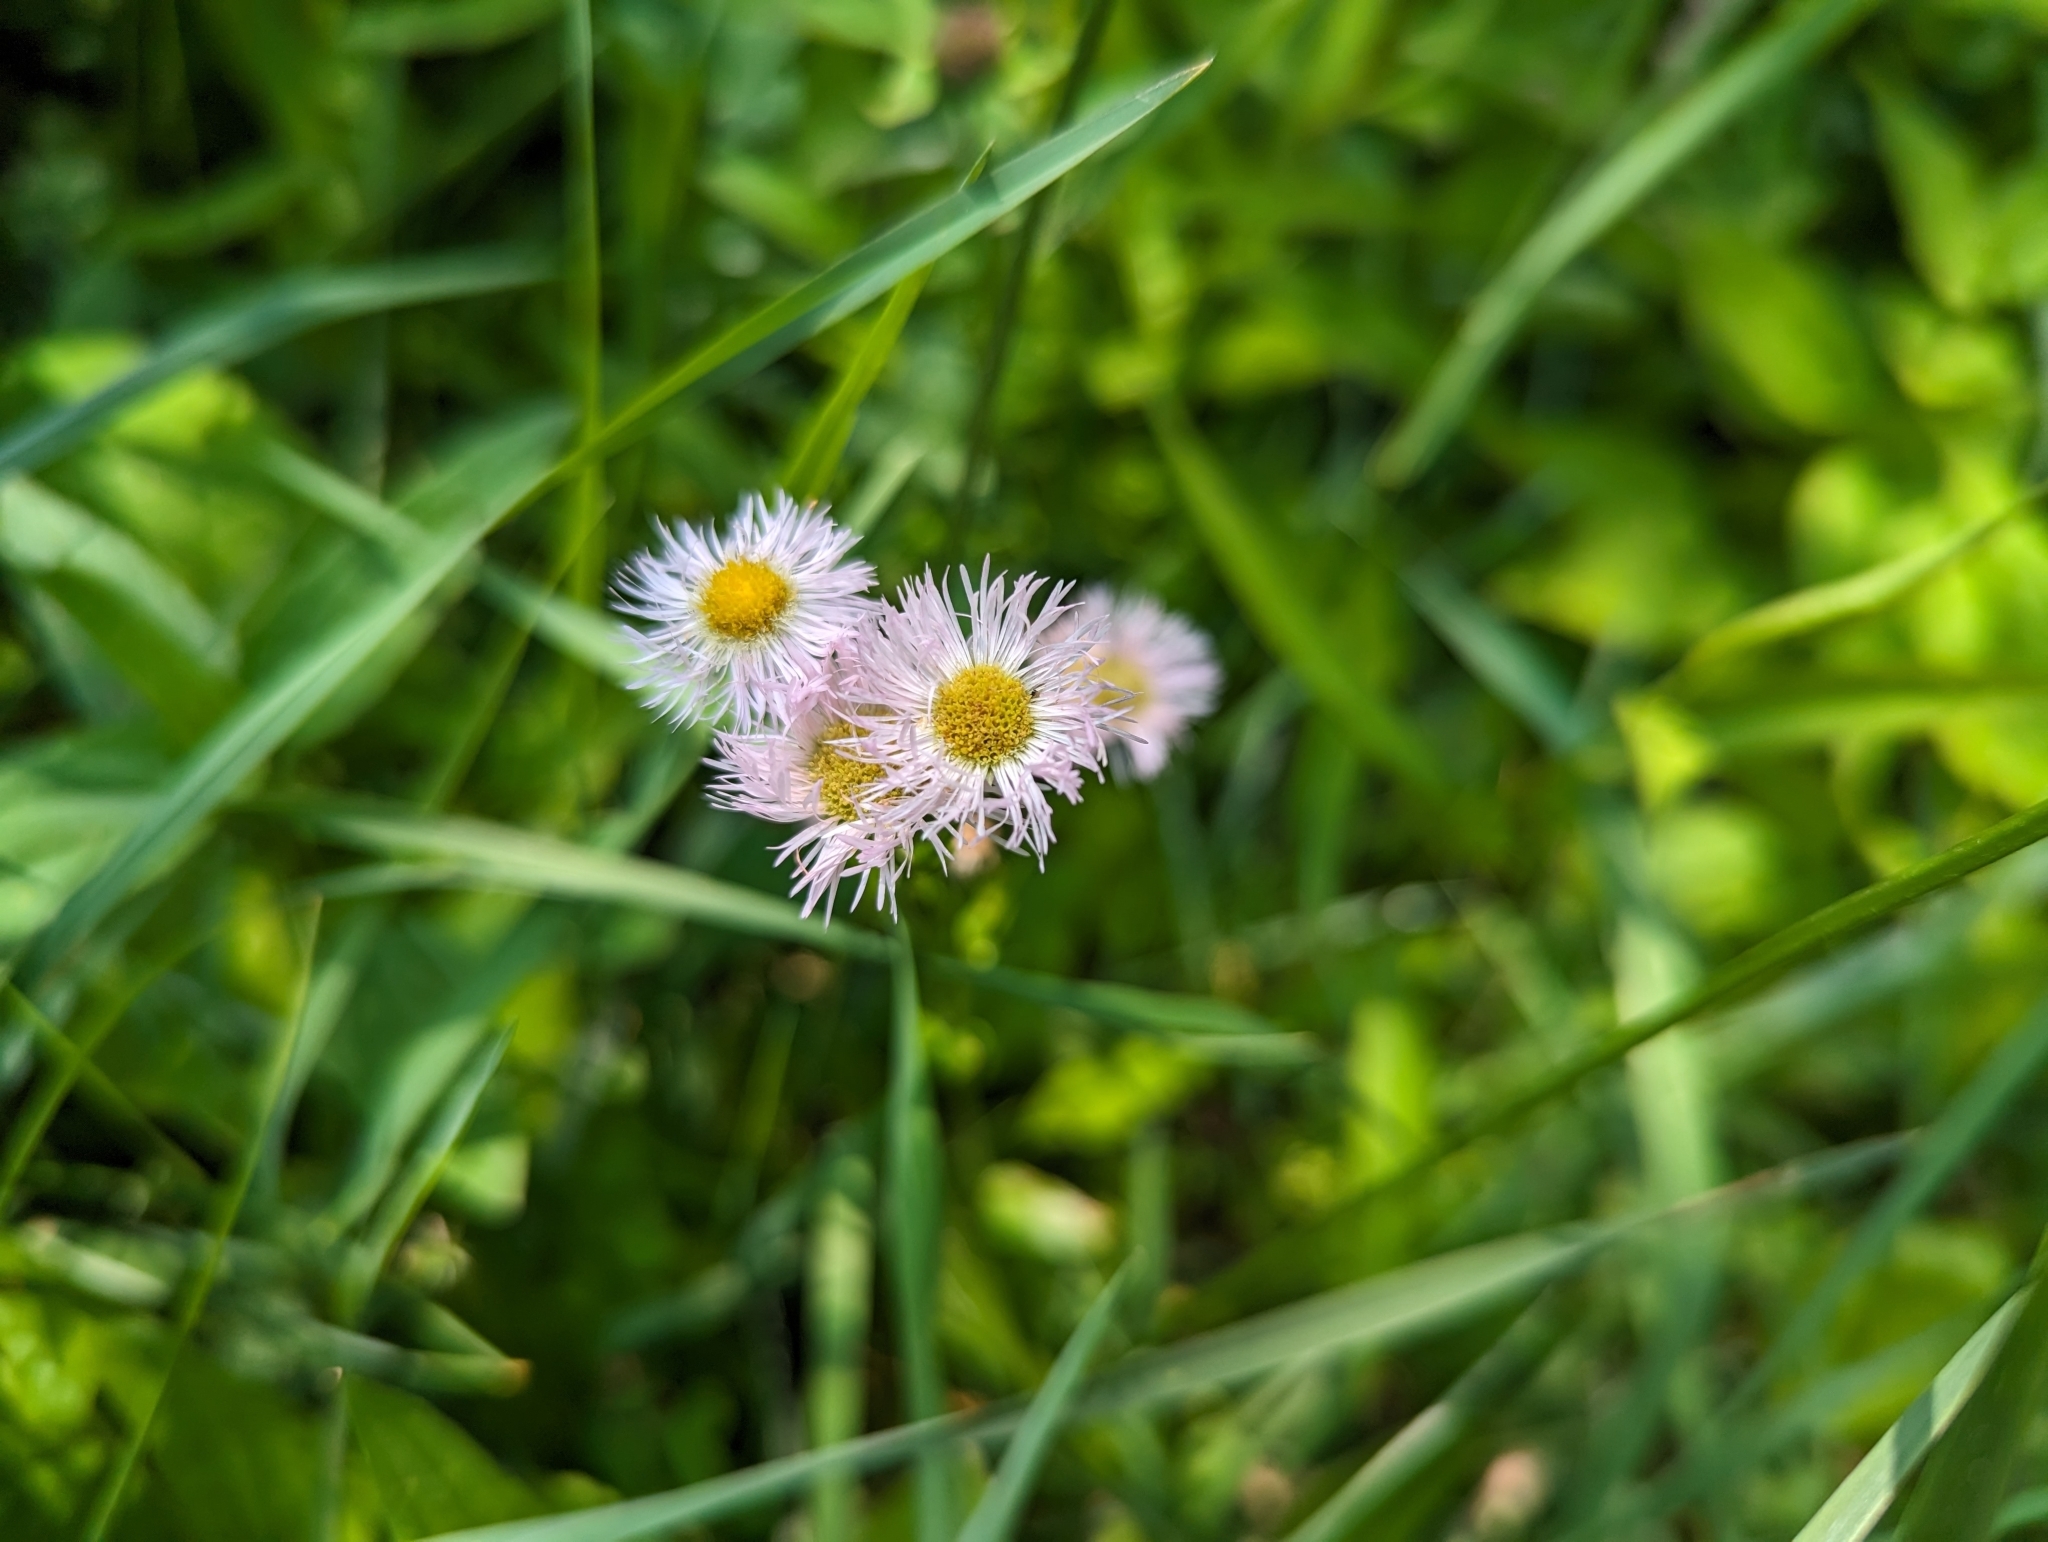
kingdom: Plantae
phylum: Tracheophyta
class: Magnoliopsida
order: Asterales
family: Asteraceae
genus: Erigeron
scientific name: Erigeron philadelphicus
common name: Robin's-plantain
